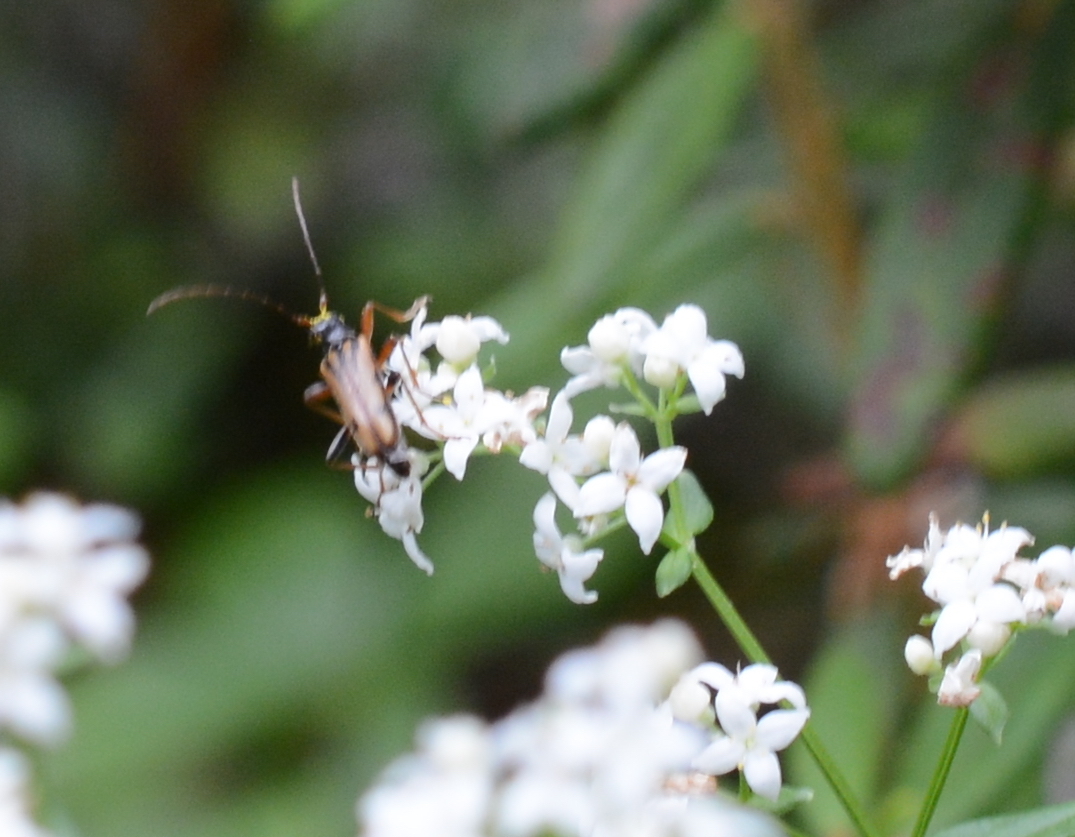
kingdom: Animalia
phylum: Arthropoda
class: Insecta
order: Coleoptera
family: Cerambycidae
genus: Pidonia
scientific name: Pidonia scripta
